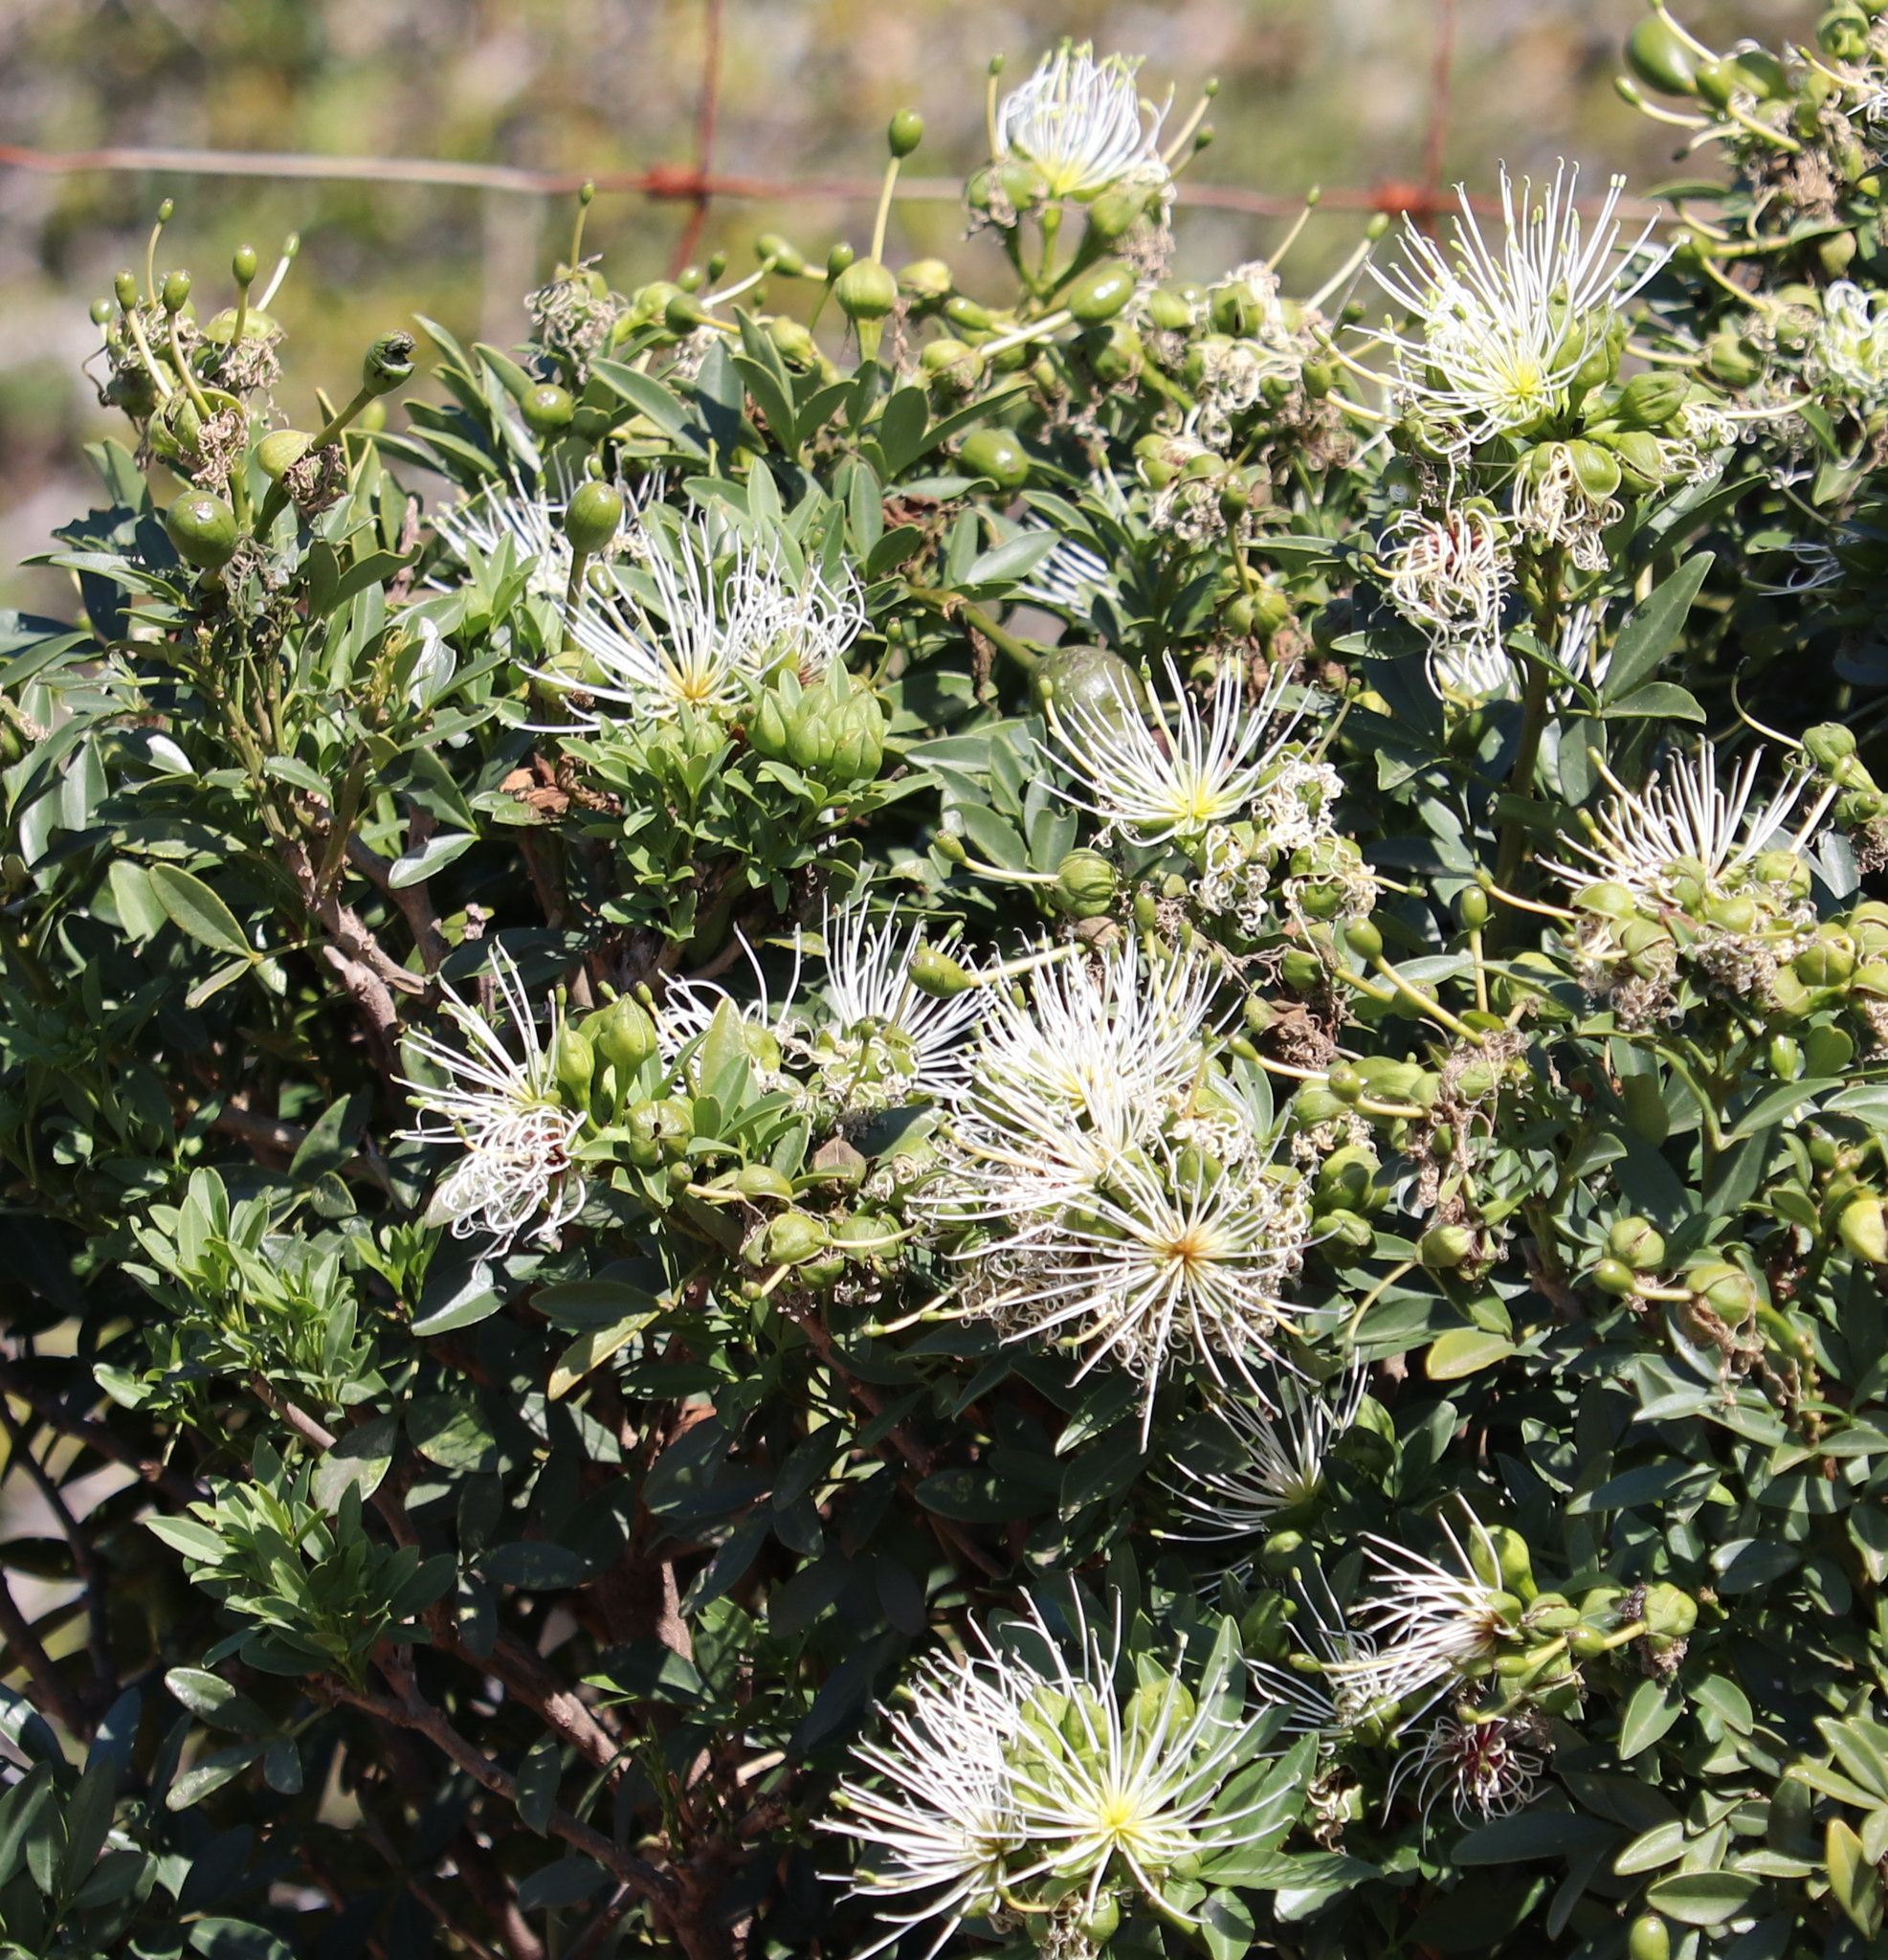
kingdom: Plantae
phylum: Tracheophyta
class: Magnoliopsida
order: Brassicales
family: Capparaceae
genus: Maerua
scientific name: Maerua cafra
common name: Bush maerua
